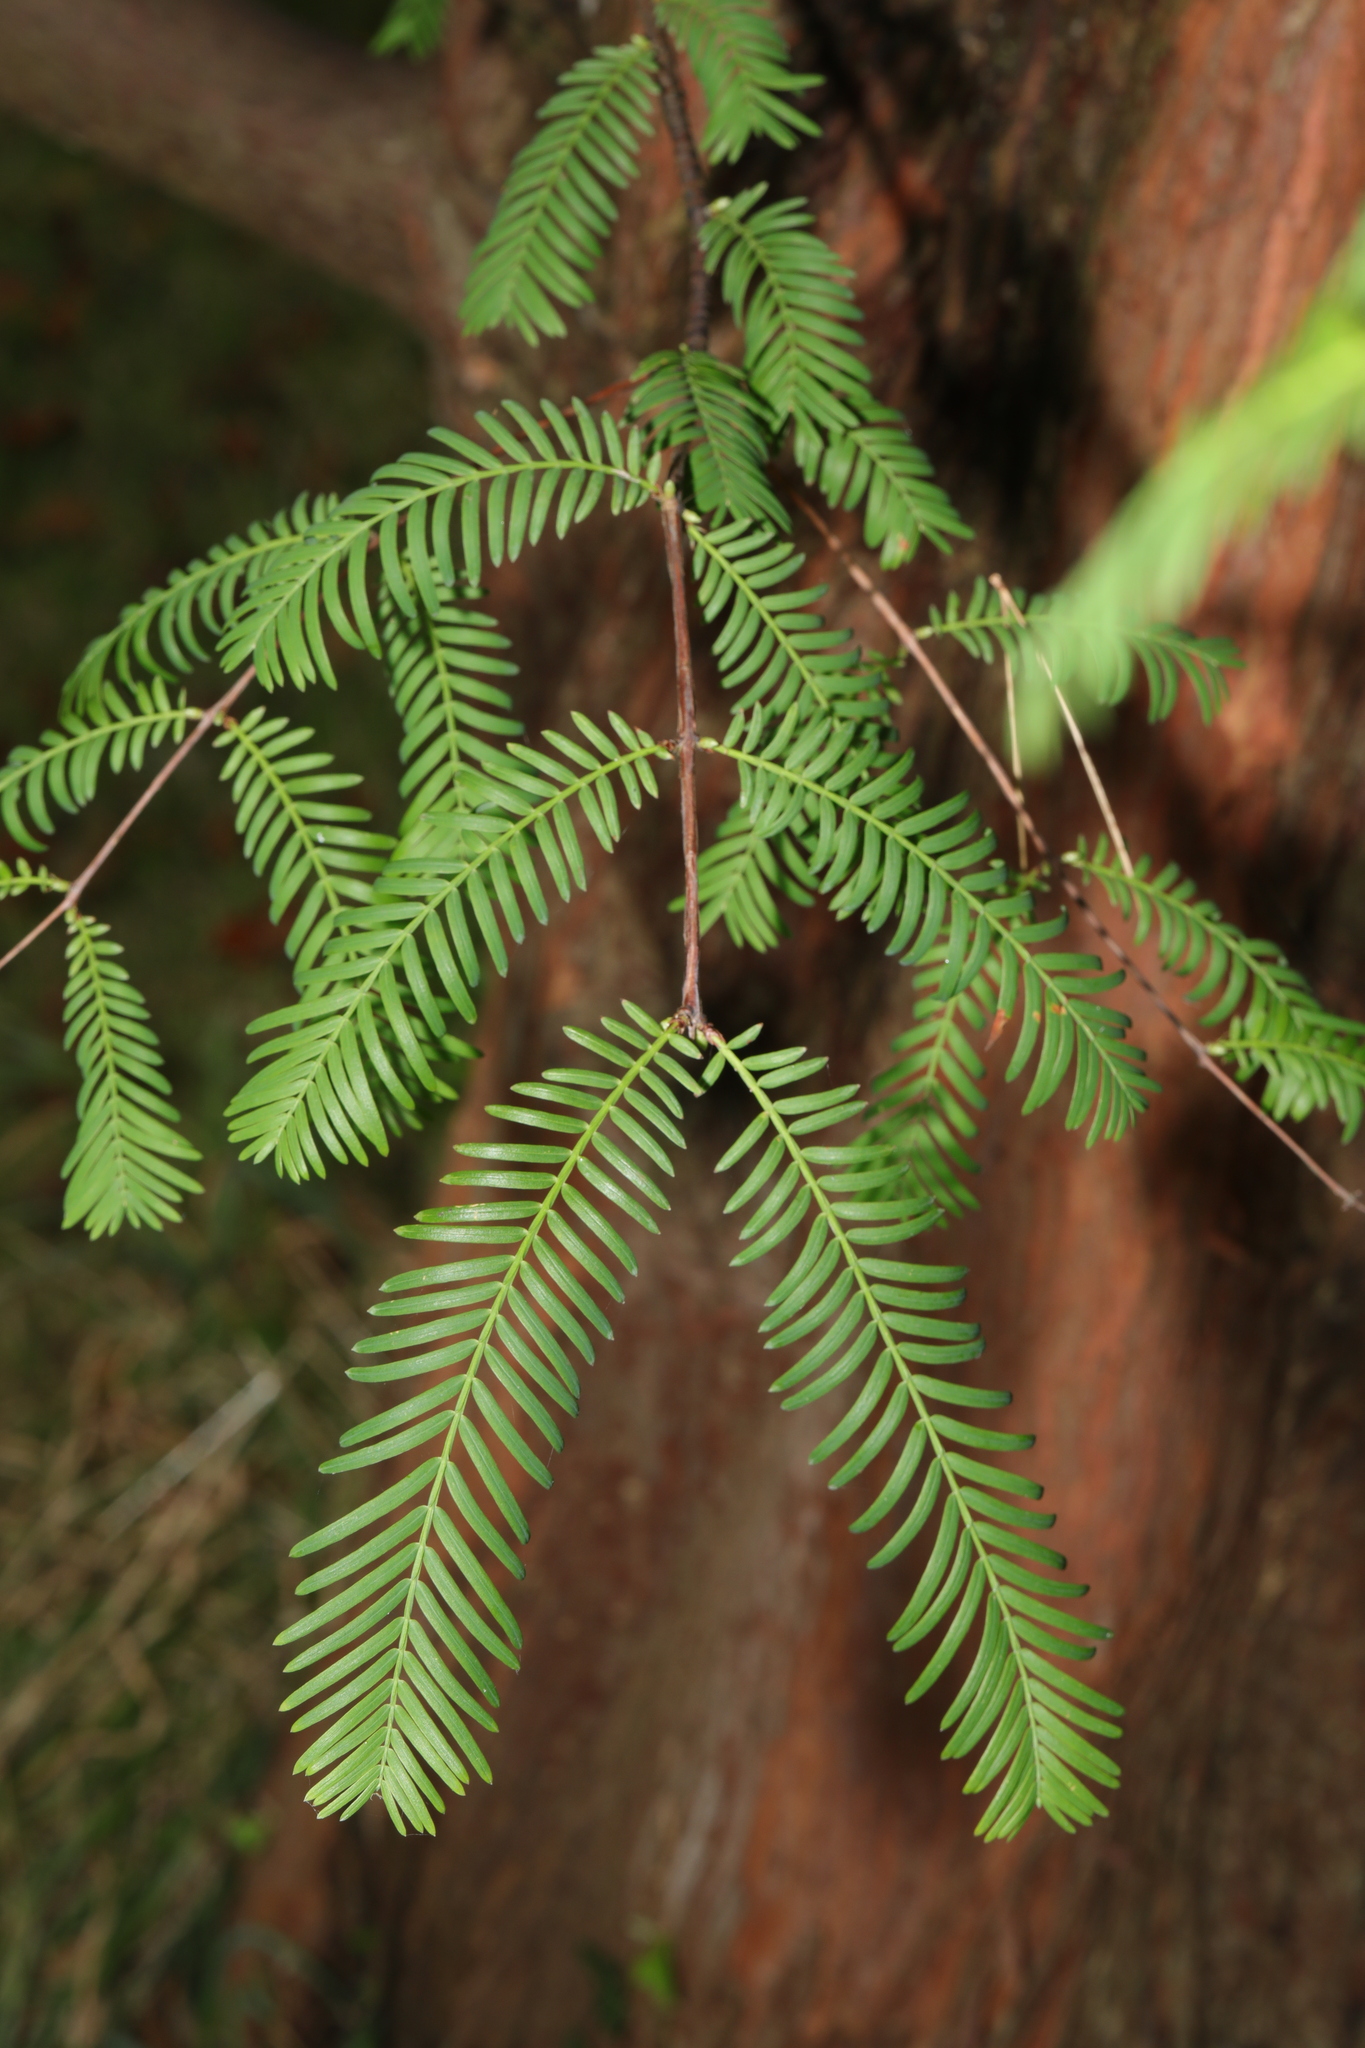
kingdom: Plantae
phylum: Tracheophyta
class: Pinopsida
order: Pinales
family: Cupressaceae
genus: Metasequoia
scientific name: Metasequoia glyptostroboides
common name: Dawn redwood
